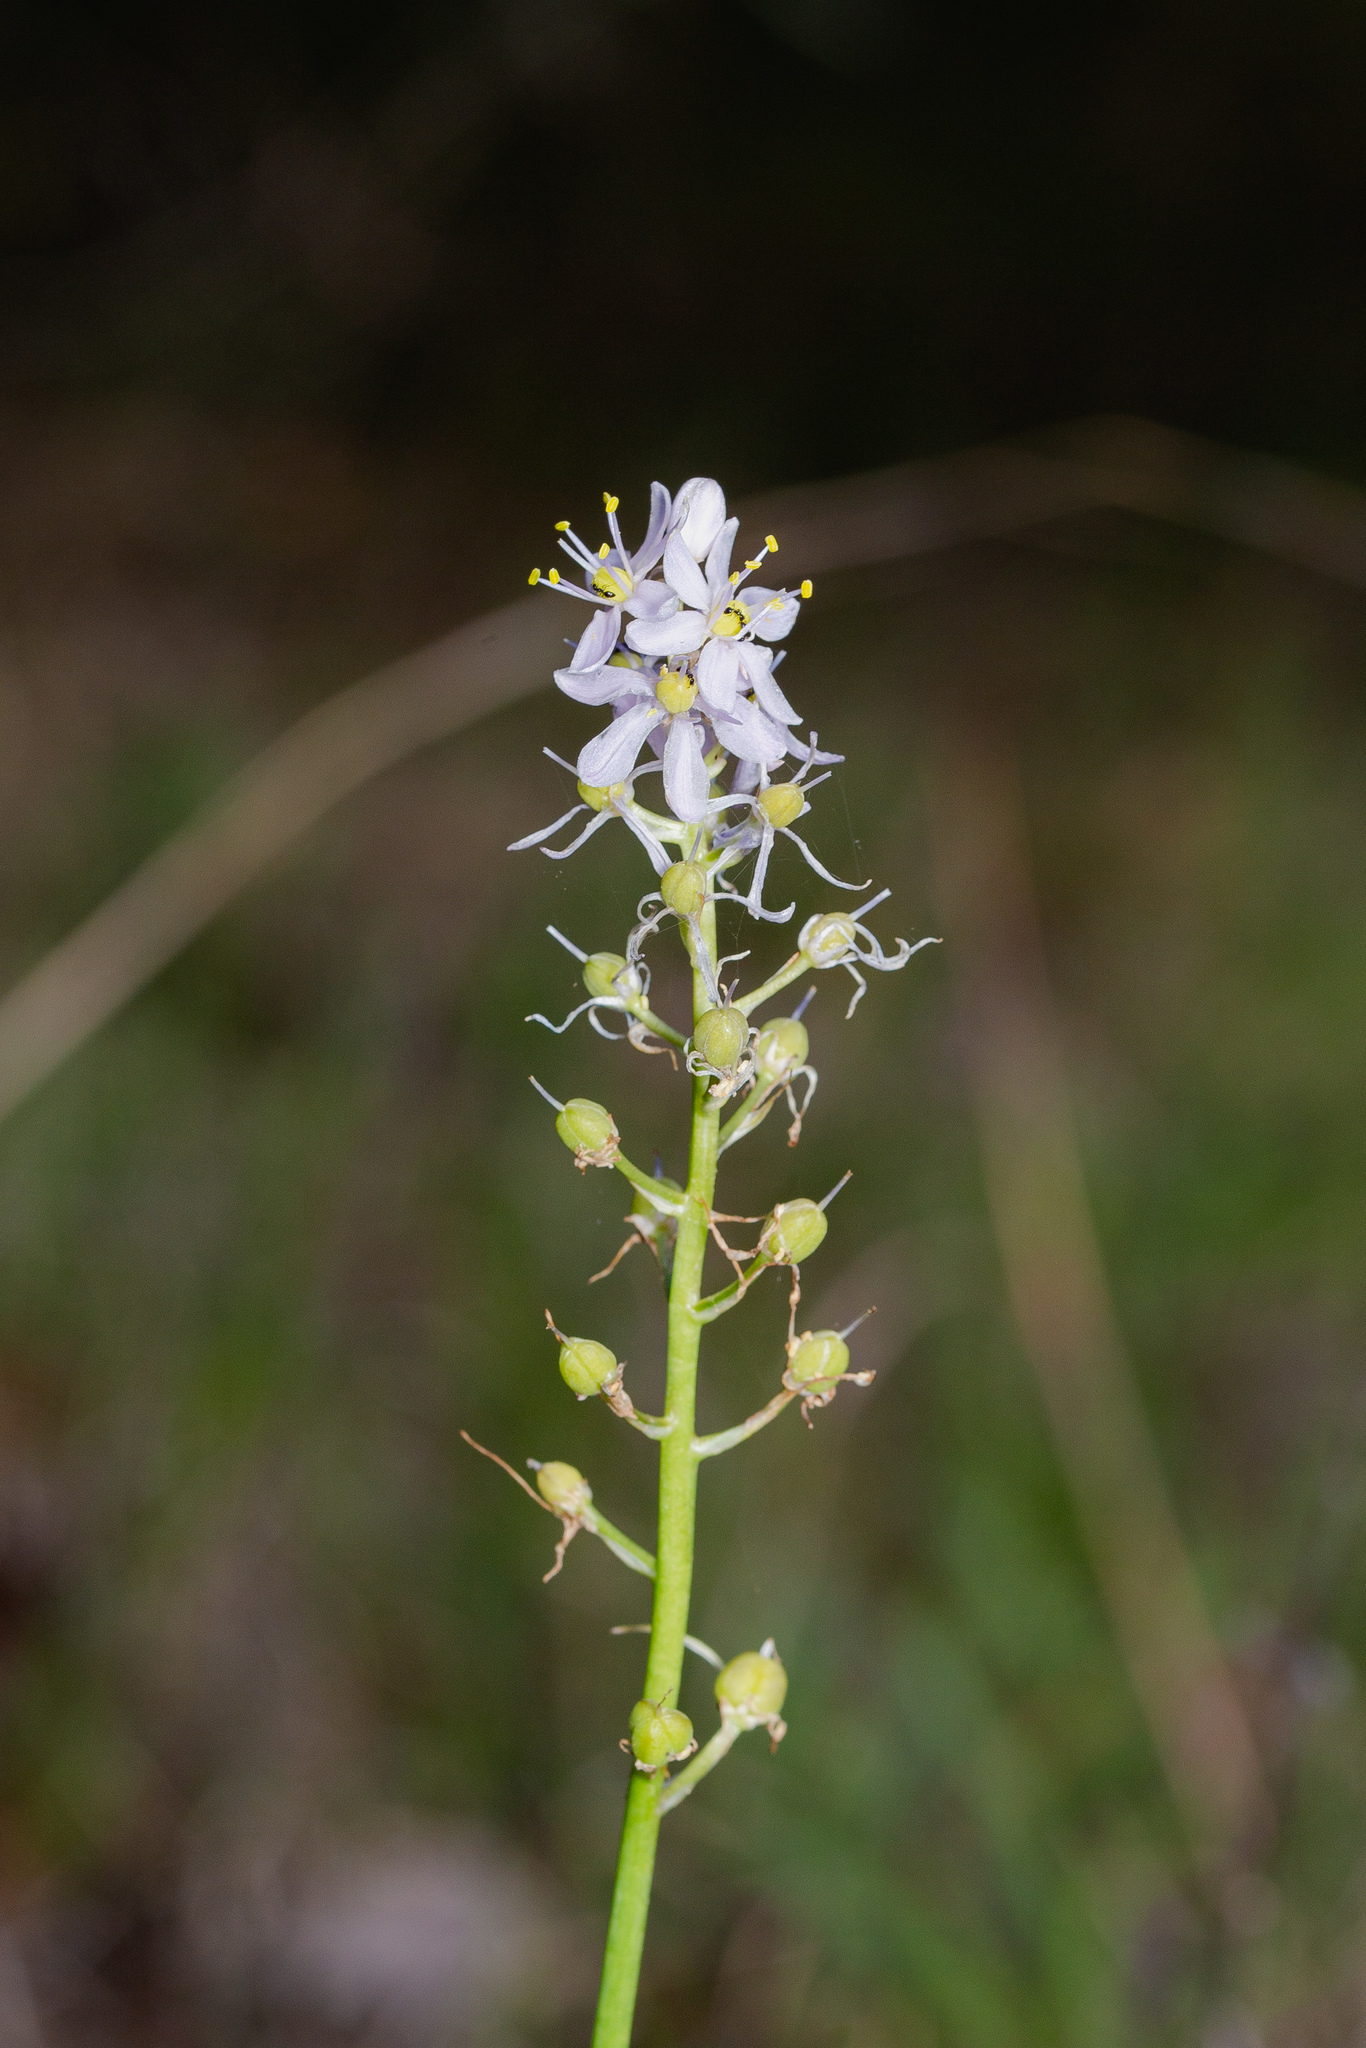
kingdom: Plantae
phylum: Tracheophyta
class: Liliopsida
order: Asparagales
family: Asparagaceae
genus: Camassia
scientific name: Camassia scilloides
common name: Wild hyacinth
